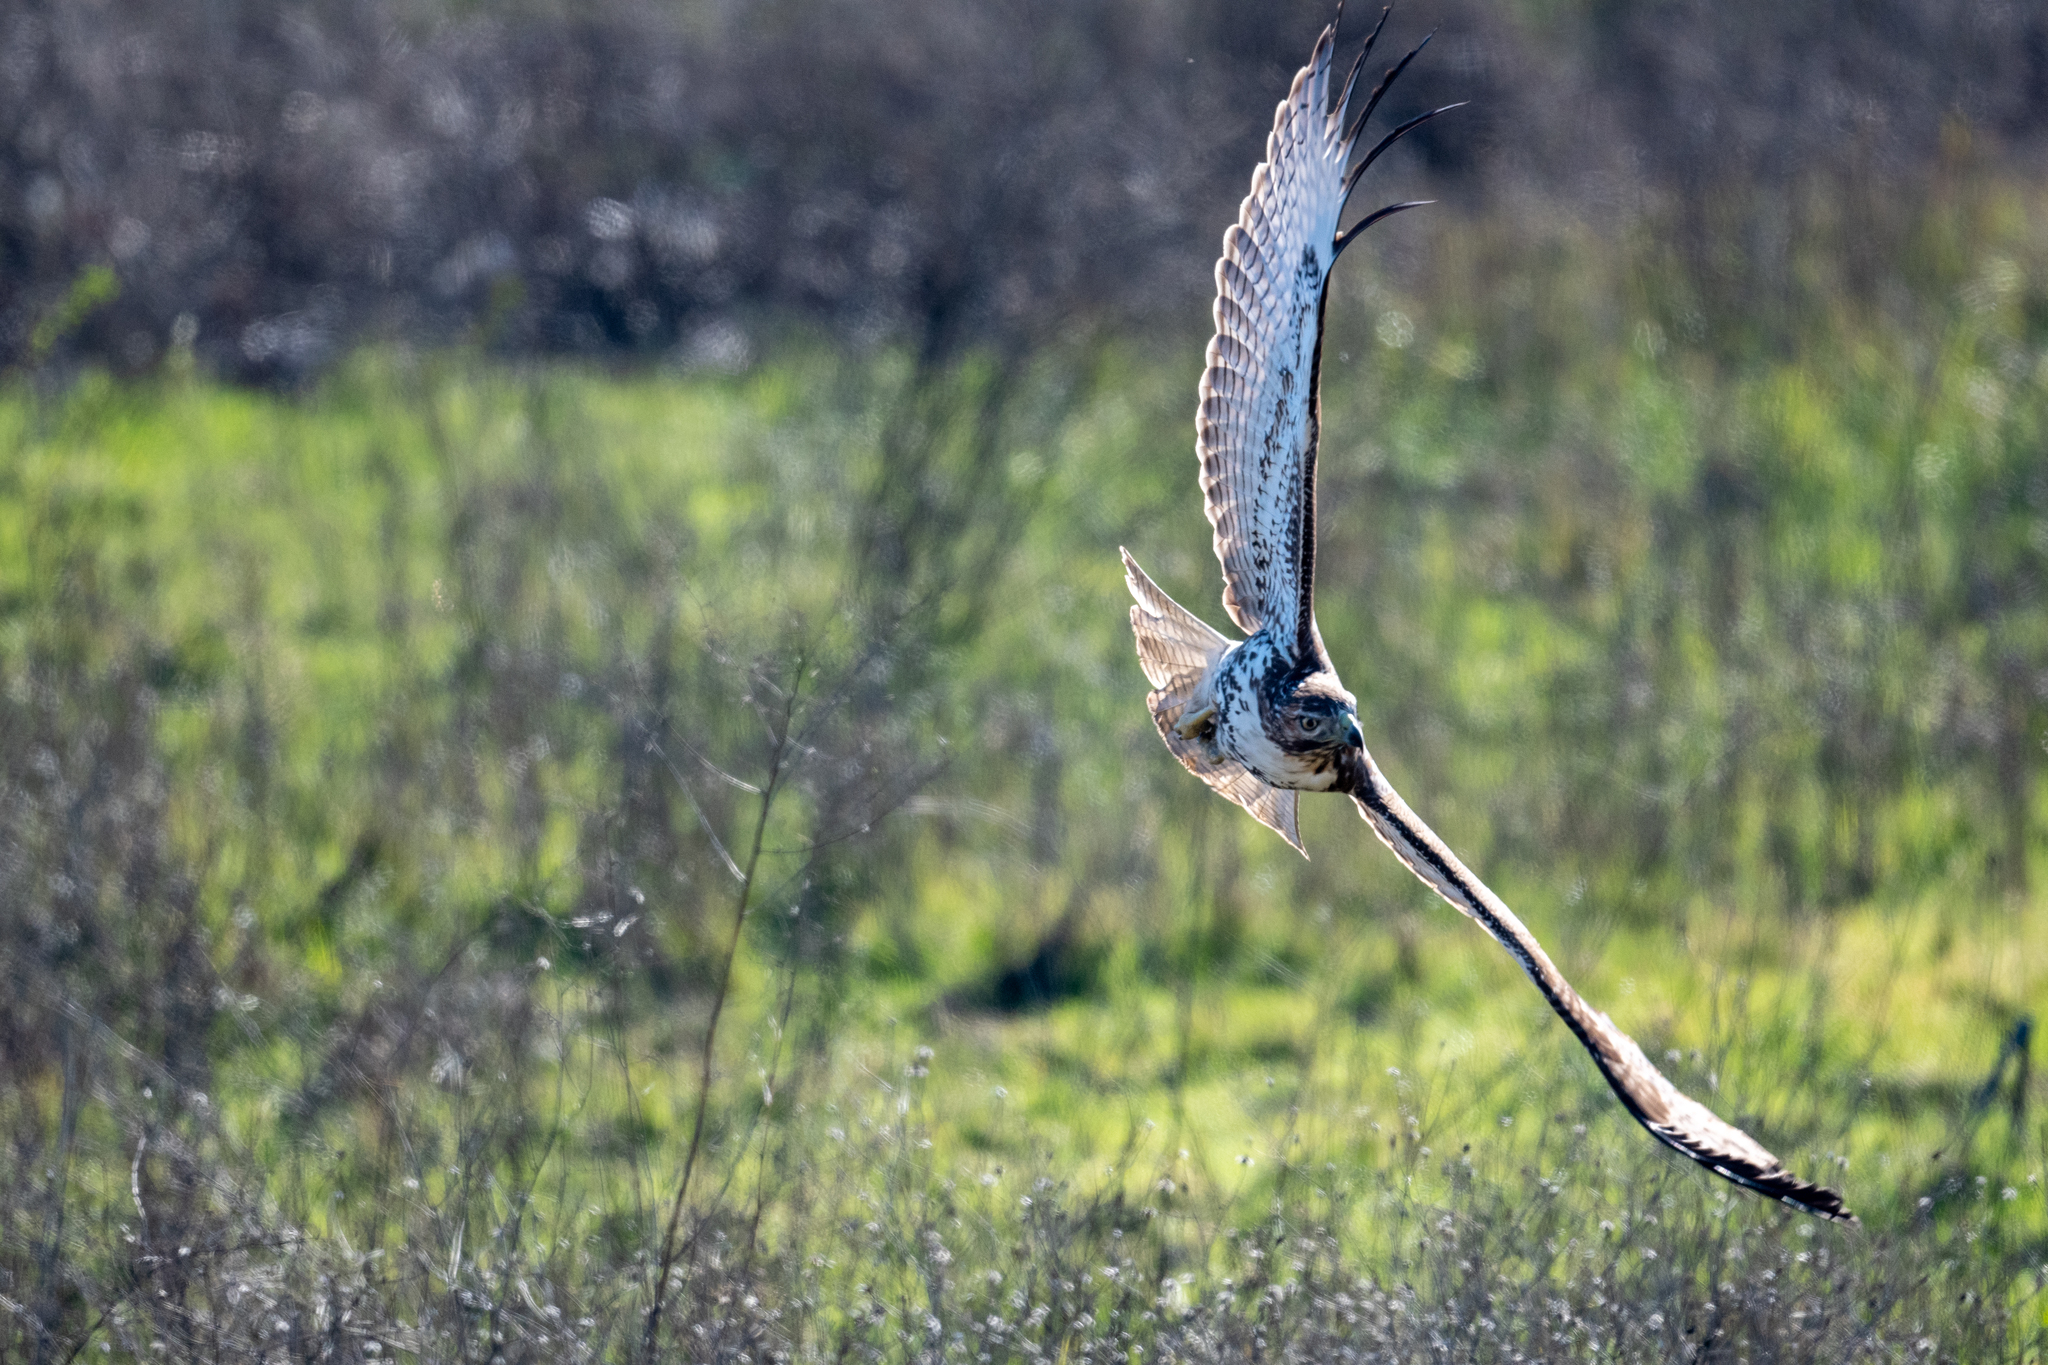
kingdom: Animalia
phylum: Chordata
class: Aves
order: Accipitriformes
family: Accipitridae
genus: Buteo
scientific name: Buteo jamaicensis
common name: Red-tailed hawk
